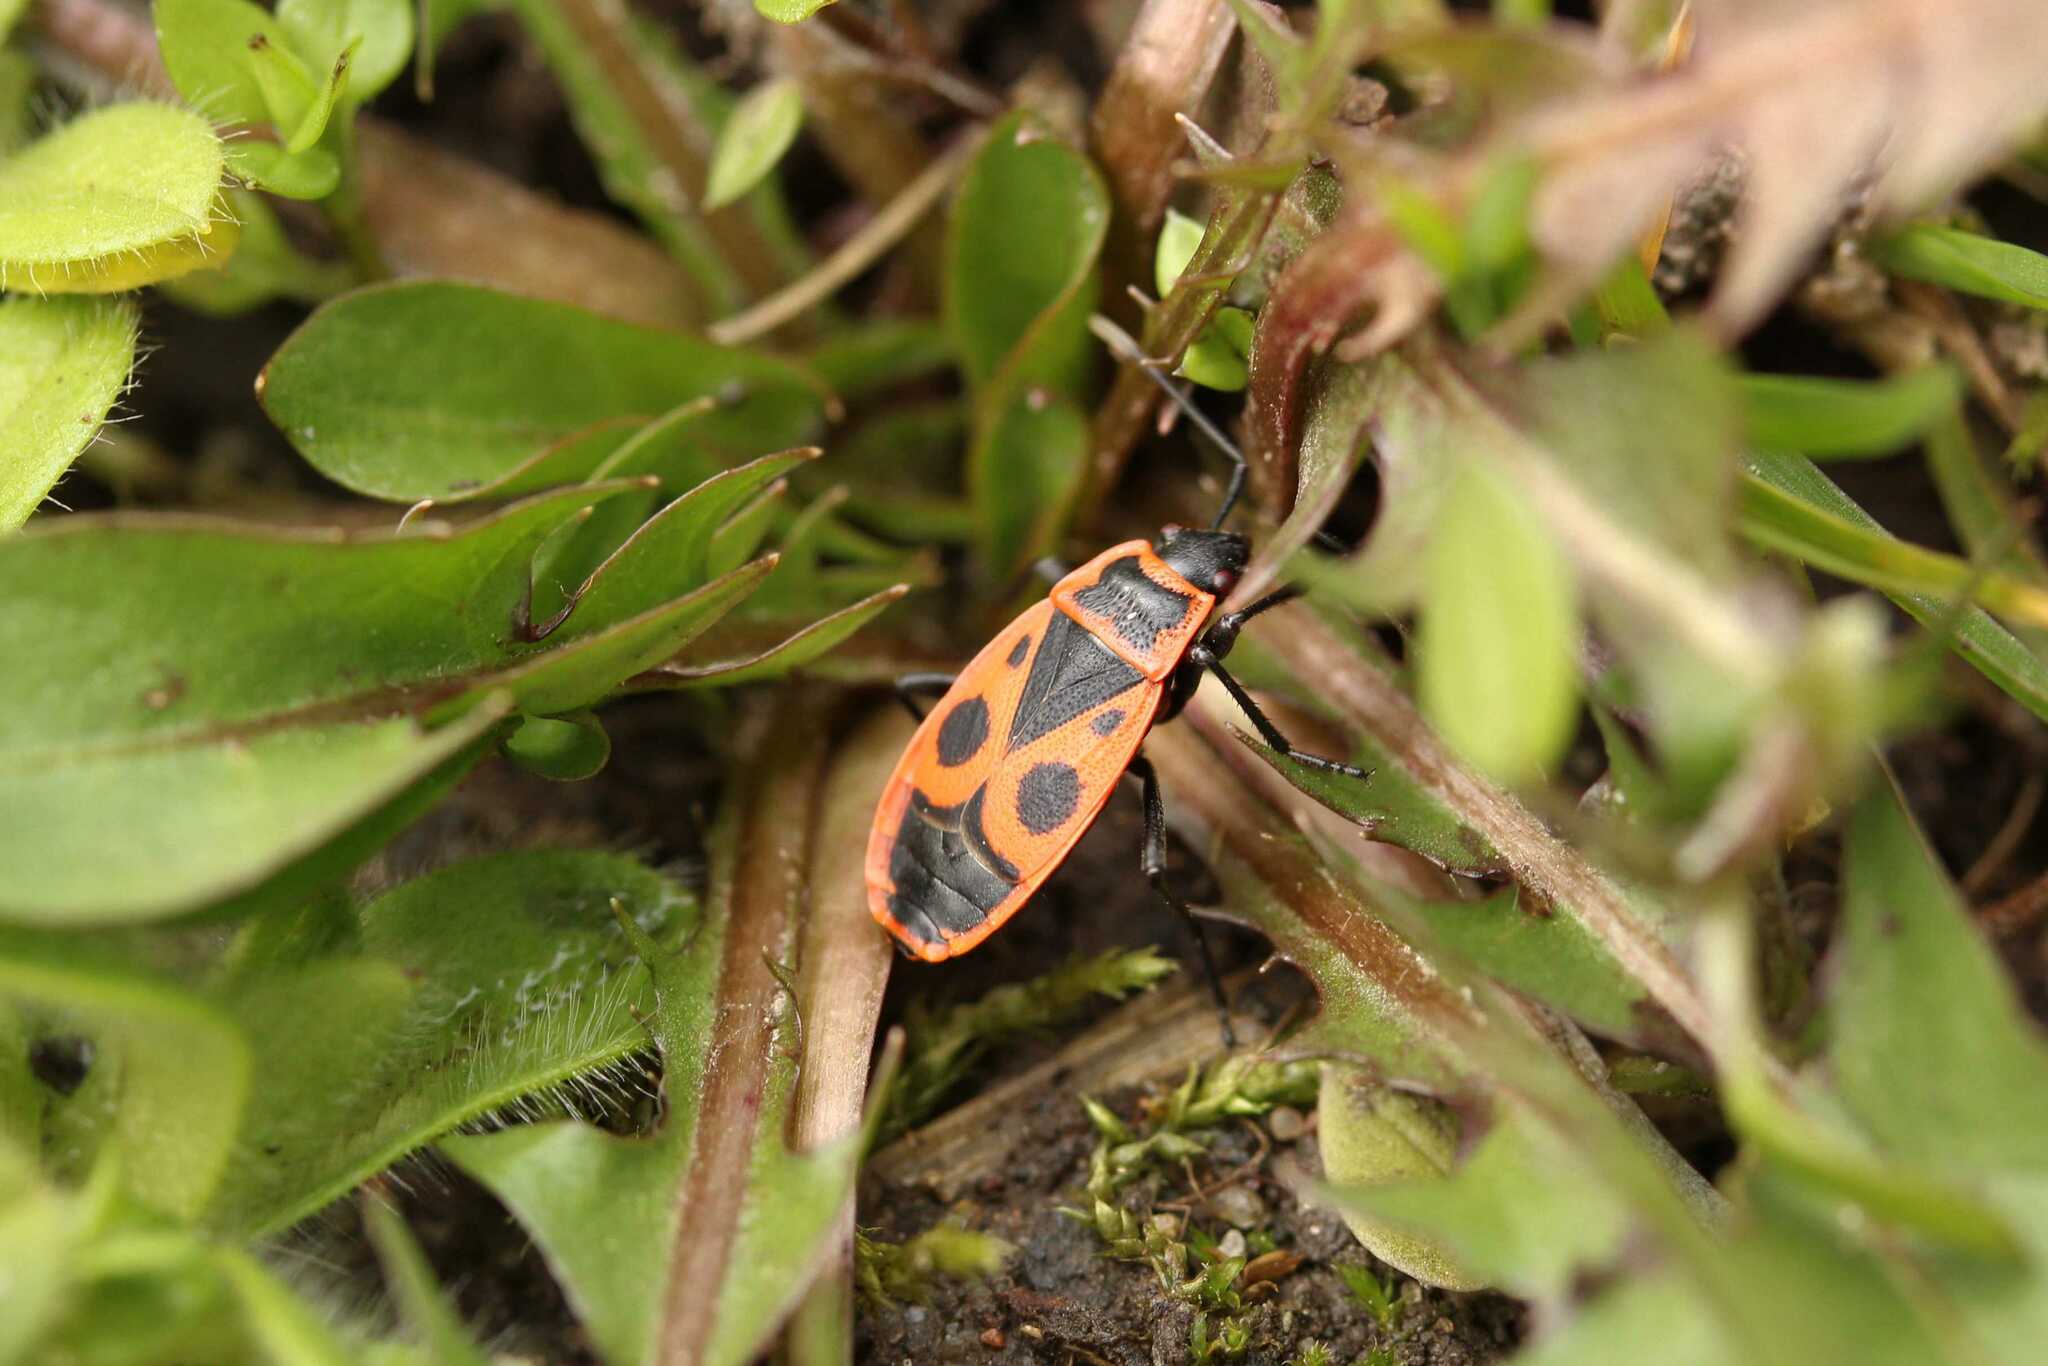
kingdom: Animalia
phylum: Arthropoda
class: Insecta
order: Hemiptera
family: Pyrrhocoridae
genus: Pyrrhocoris
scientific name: Pyrrhocoris apterus
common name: Firebug
